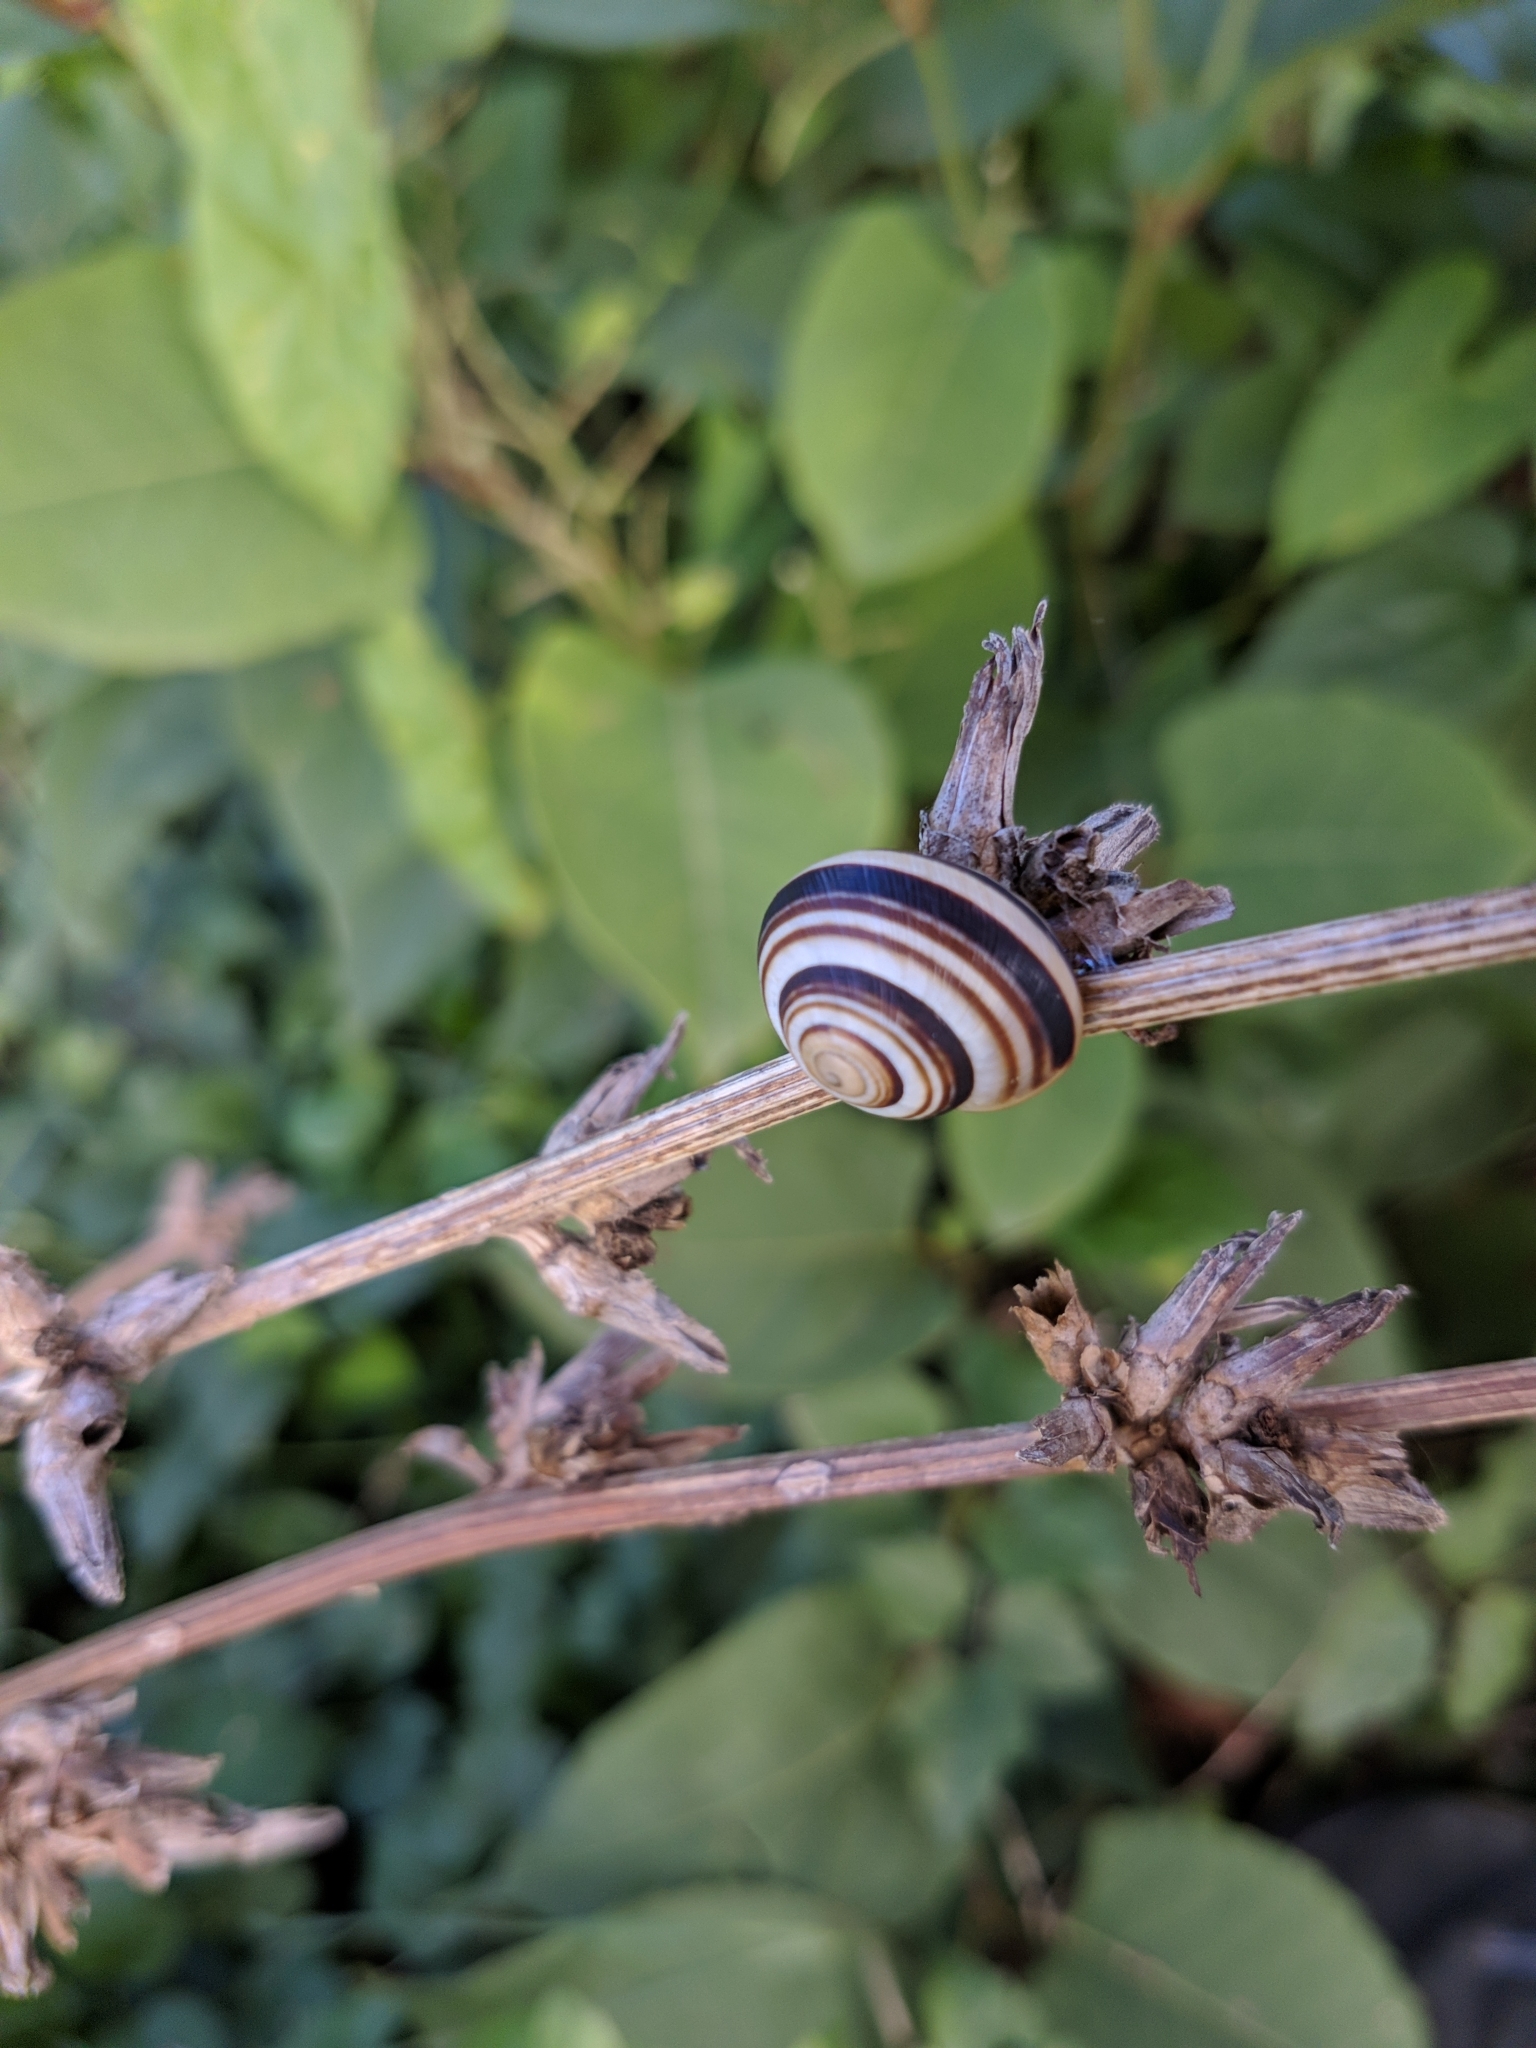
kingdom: Animalia
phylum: Mollusca
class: Gastropoda
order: Stylommatophora
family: Helicidae
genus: Caucasotachea
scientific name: Caucasotachea vindobonensis
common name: European helicid land snail
